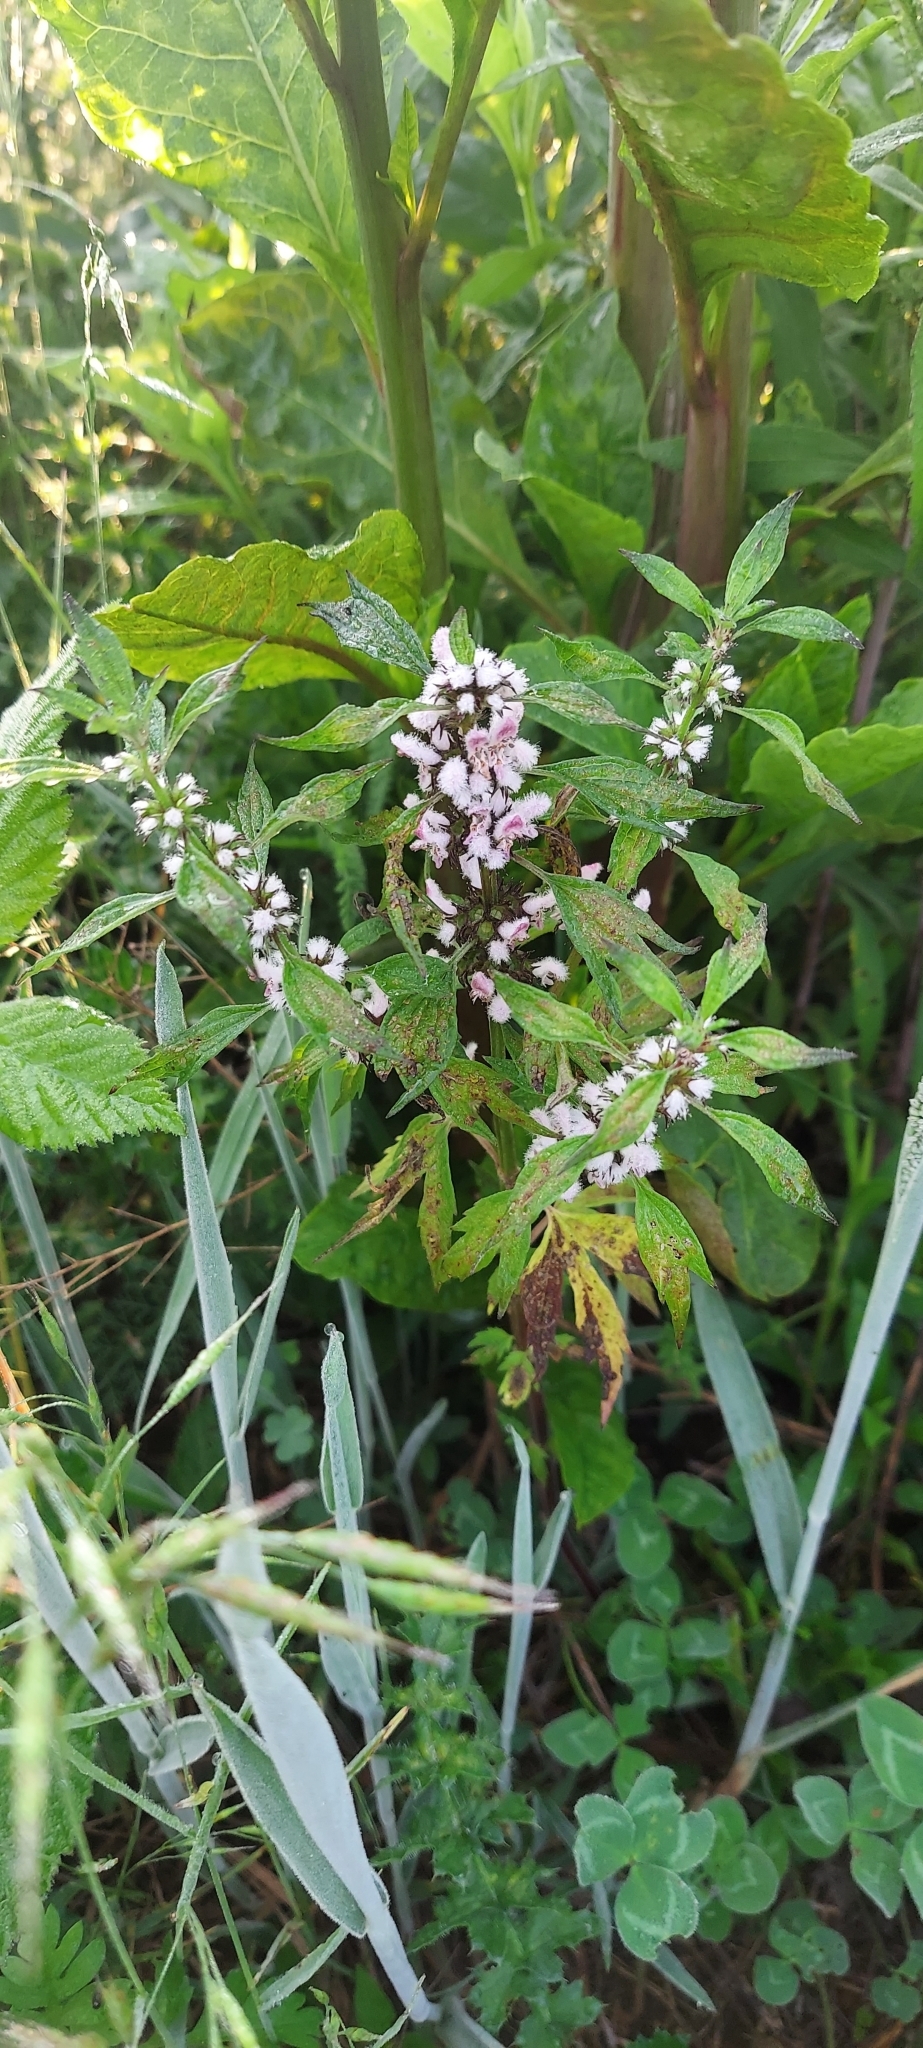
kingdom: Plantae
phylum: Tracheophyta
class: Magnoliopsida
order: Lamiales
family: Lamiaceae
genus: Leonurus
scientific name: Leonurus cardiaca
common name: Motherwort
